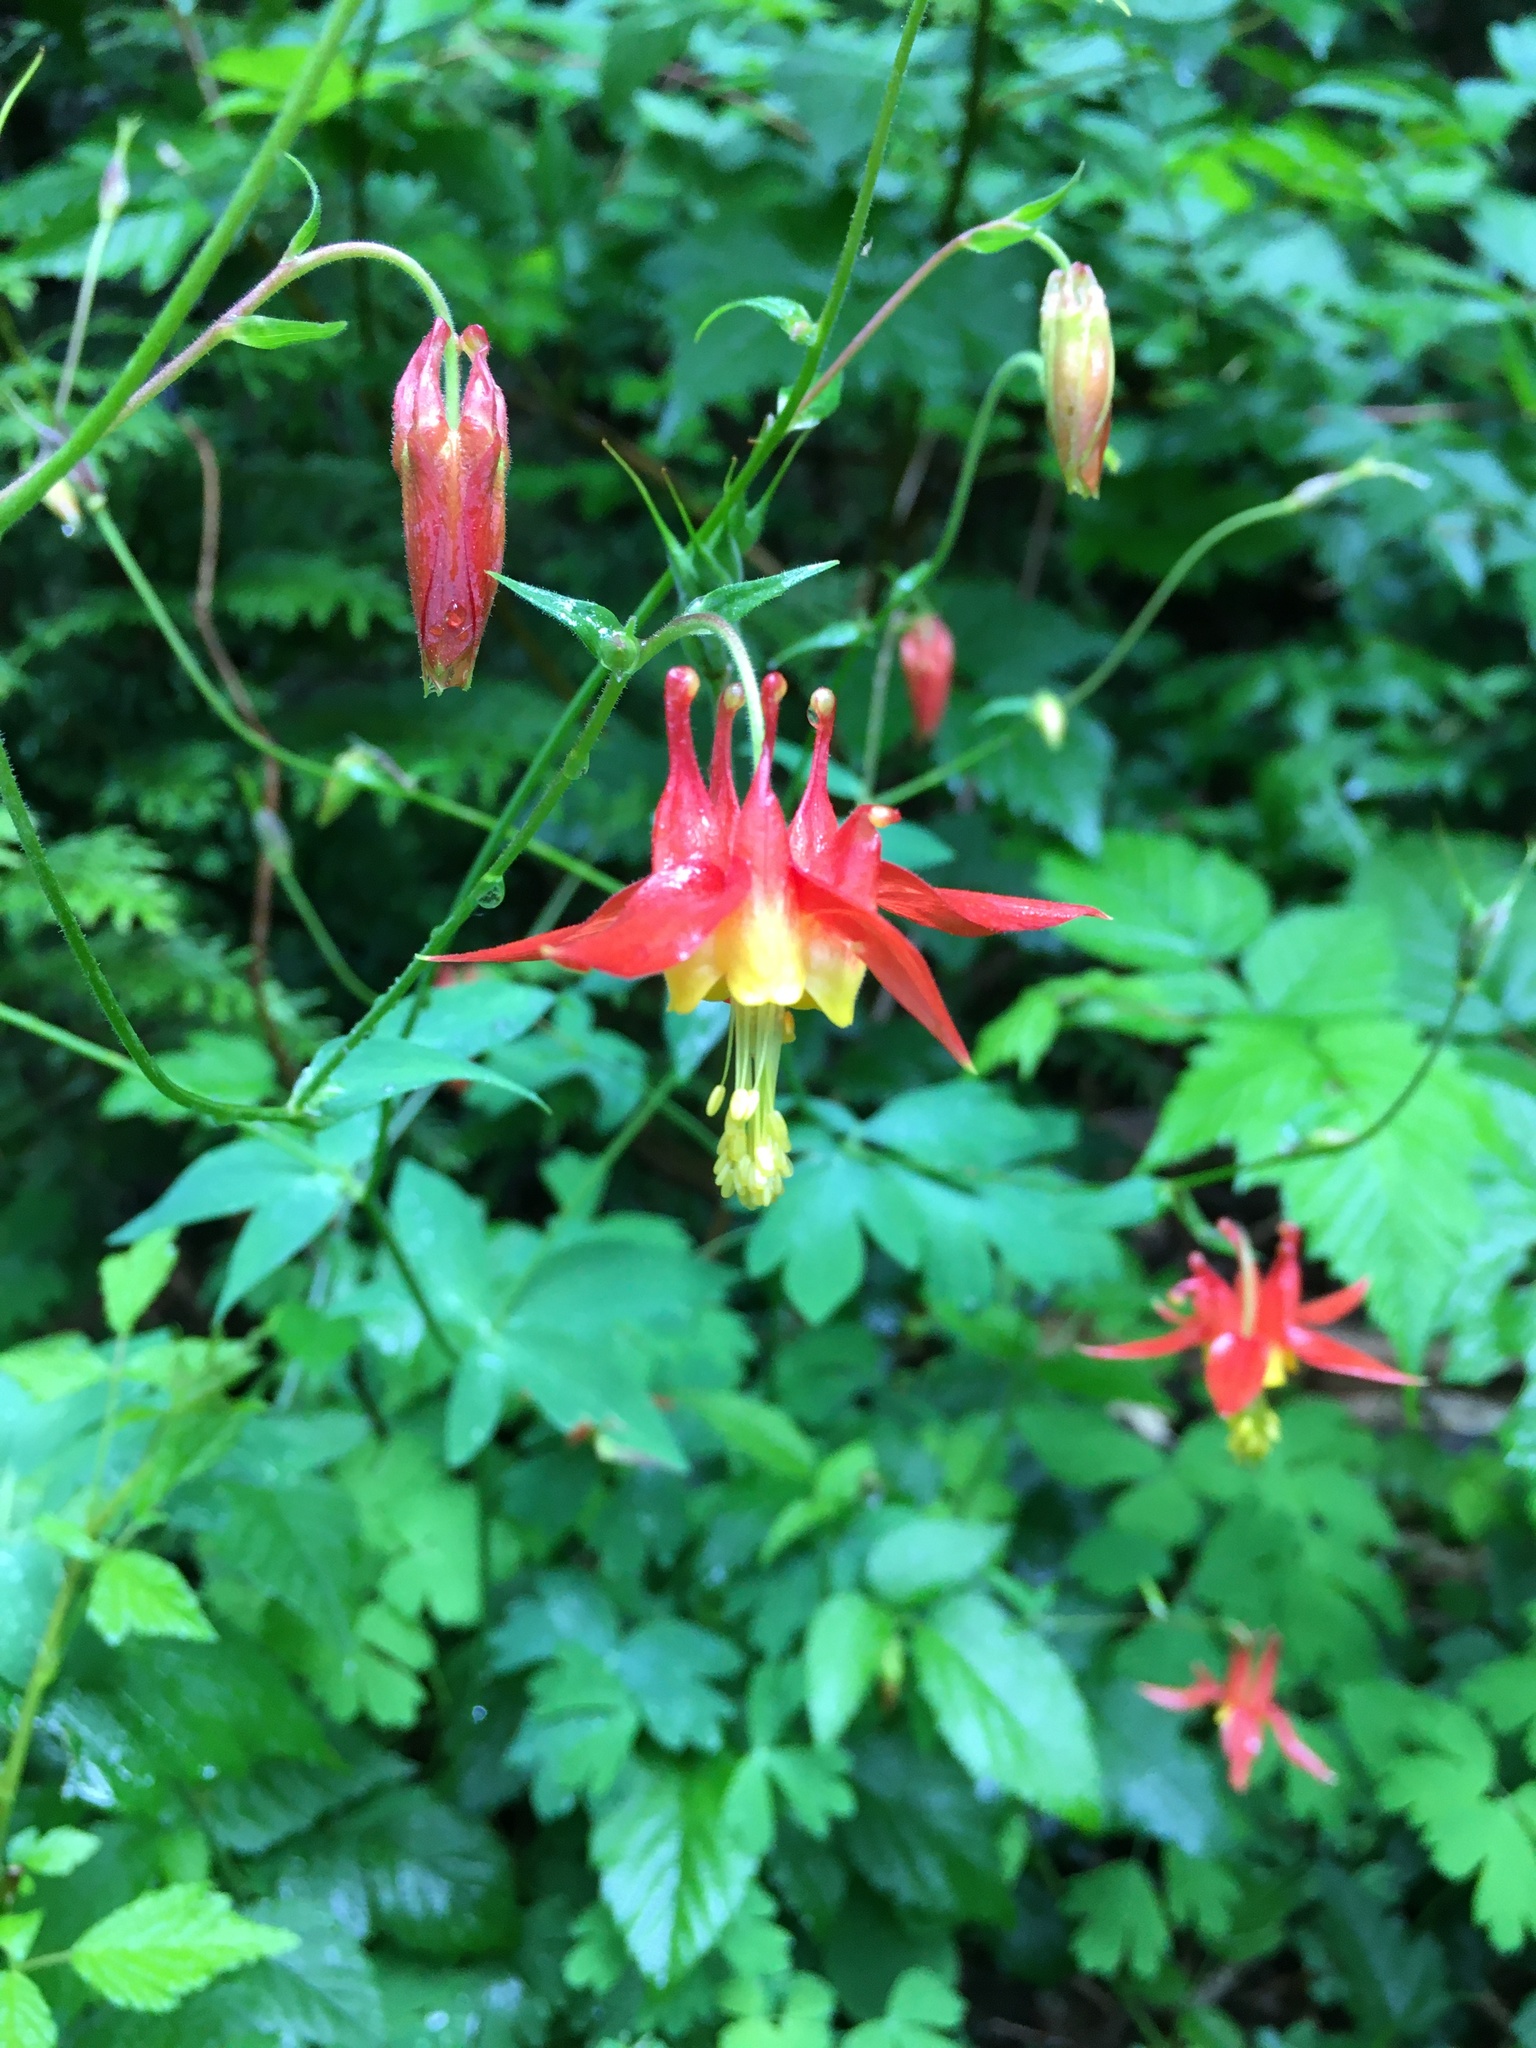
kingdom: Plantae
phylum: Tracheophyta
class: Magnoliopsida
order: Ranunculales
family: Ranunculaceae
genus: Aquilegia
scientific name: Aquilegia formosa
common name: Sitka columbine
